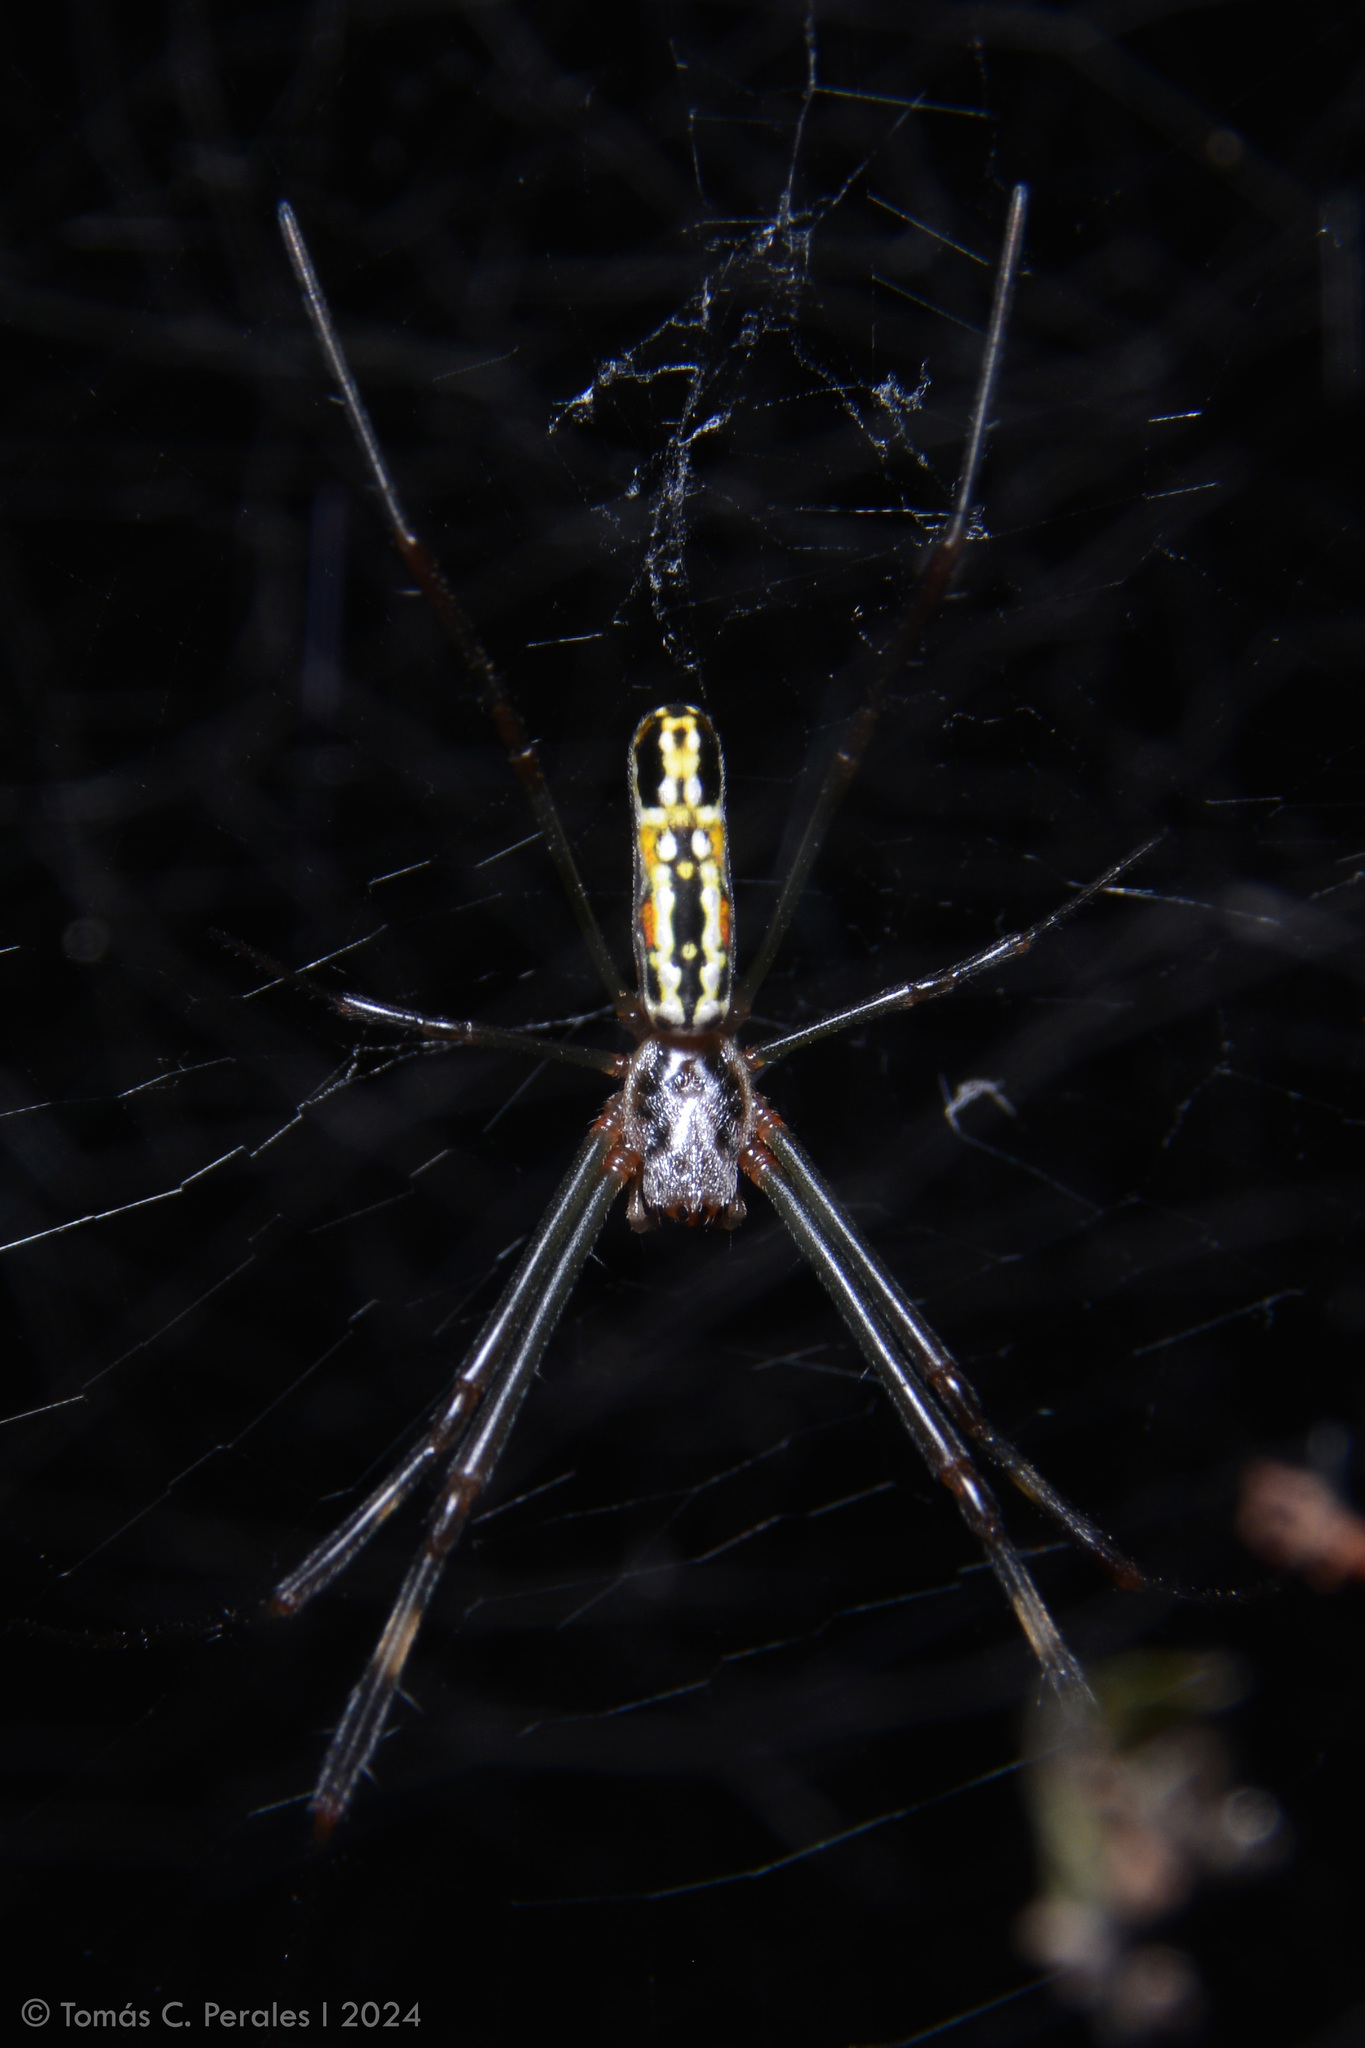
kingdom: Animalia
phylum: Arthropoda
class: Arachnida
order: Araneae
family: Araneidae
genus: Trichonephila
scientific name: Trichonephila clavipes
